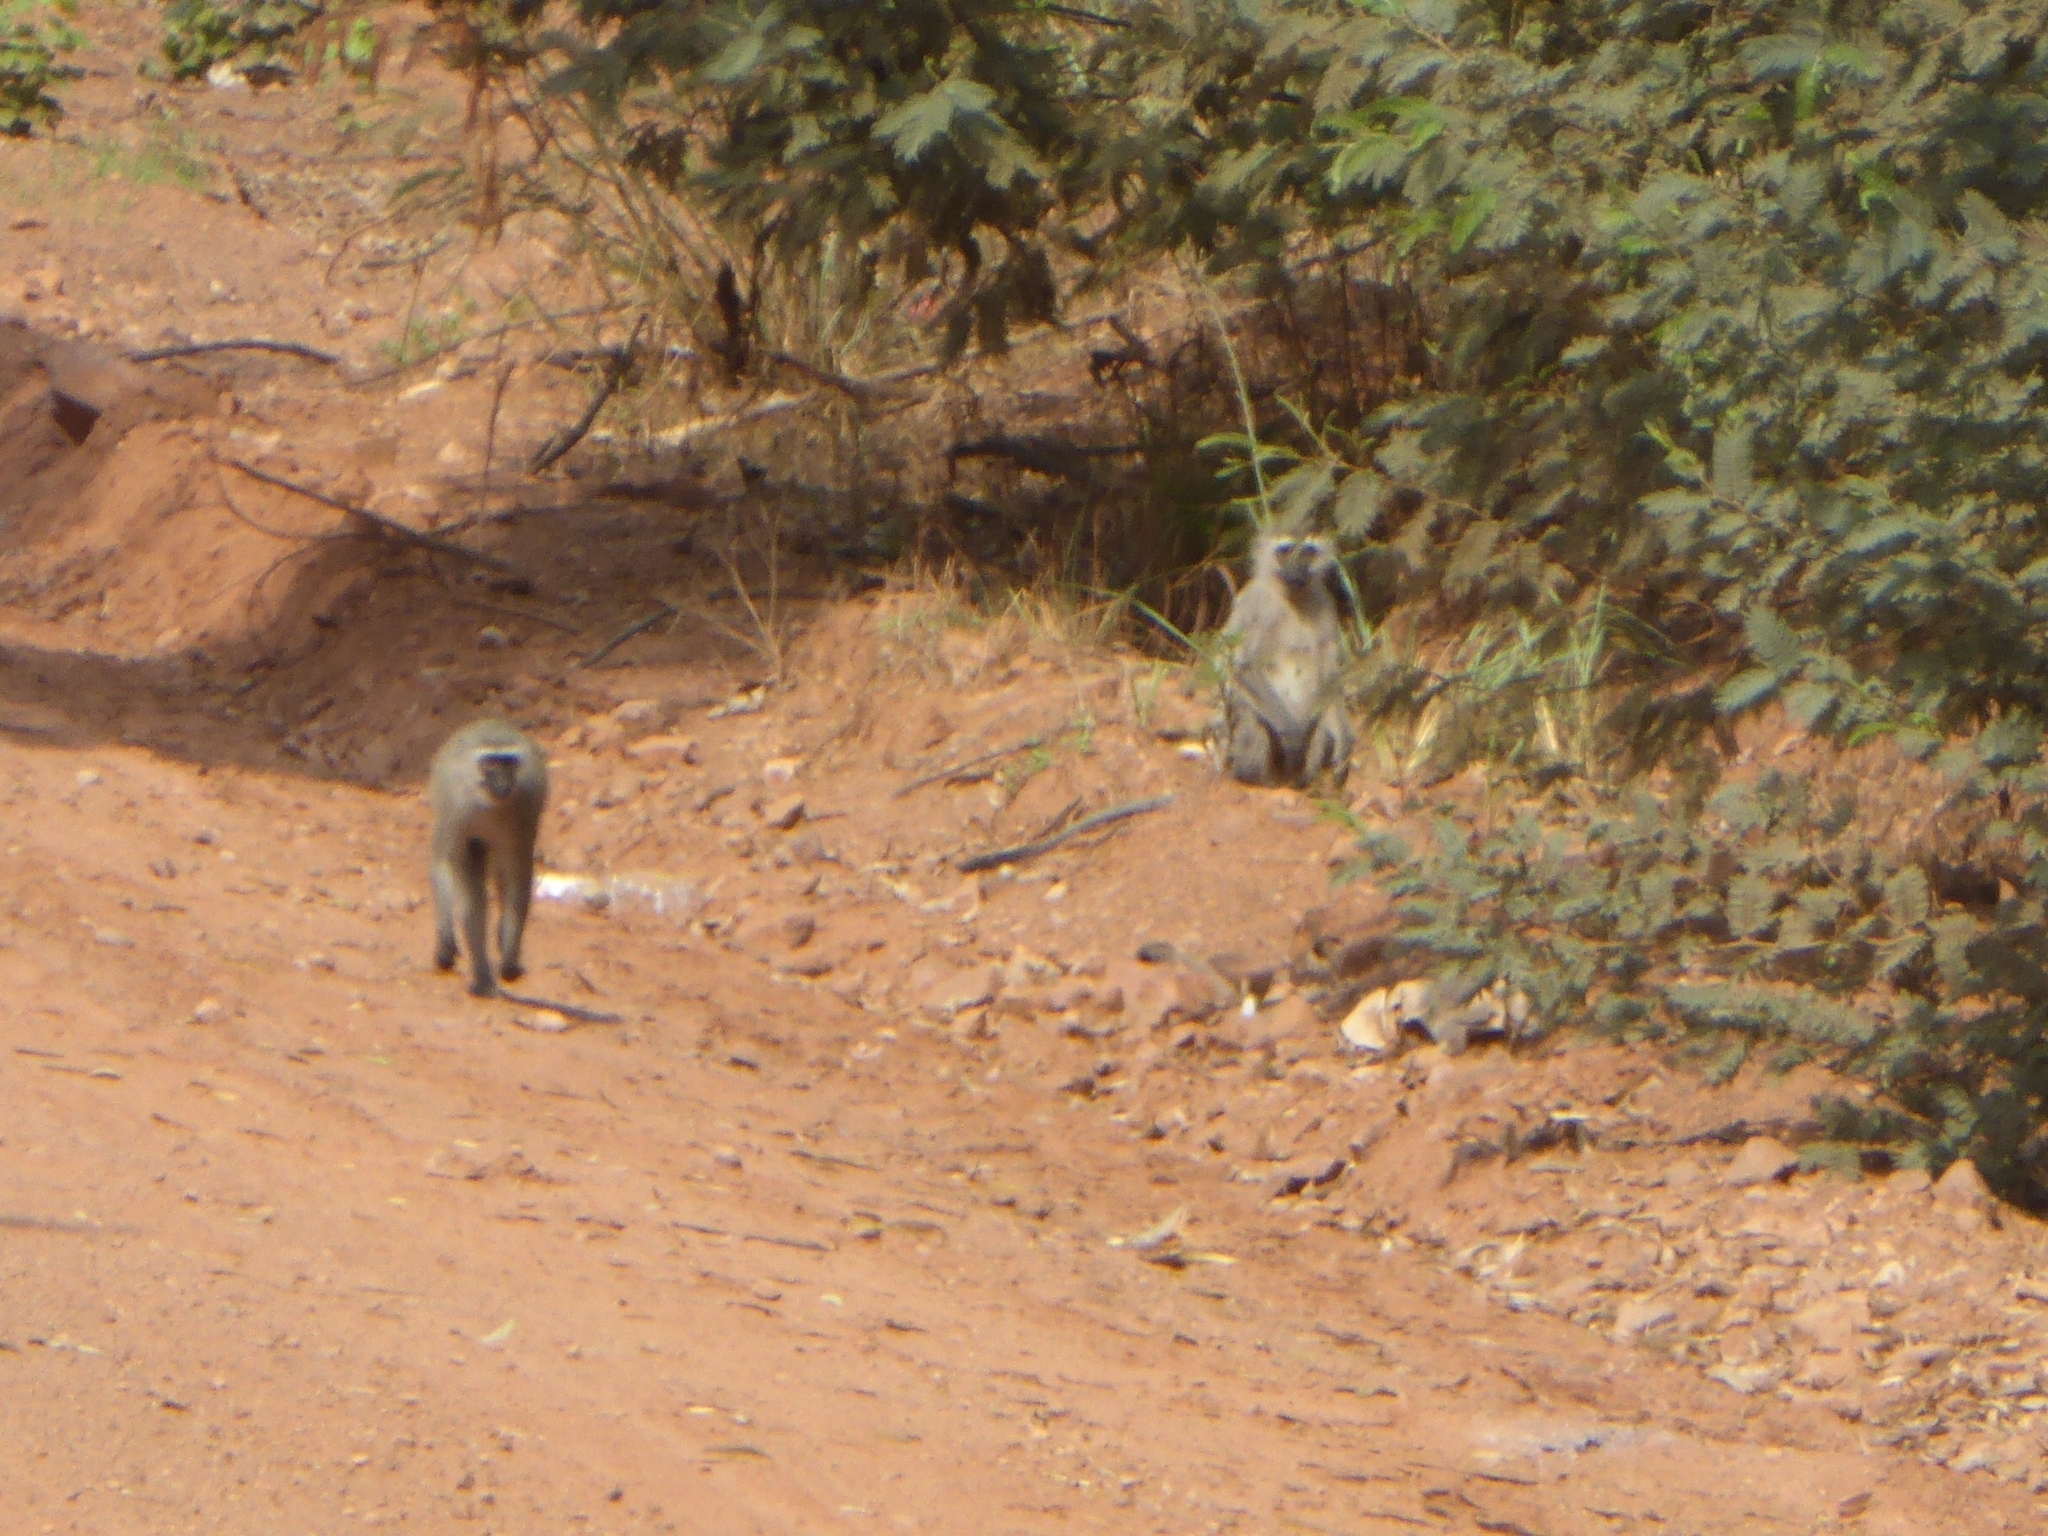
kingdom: Animalia
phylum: Chordata
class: Mammalia
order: Primates
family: Cercopithecidae
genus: Chlorocebus
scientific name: Chlorocebus pygerythrus
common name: Vervet monkey
